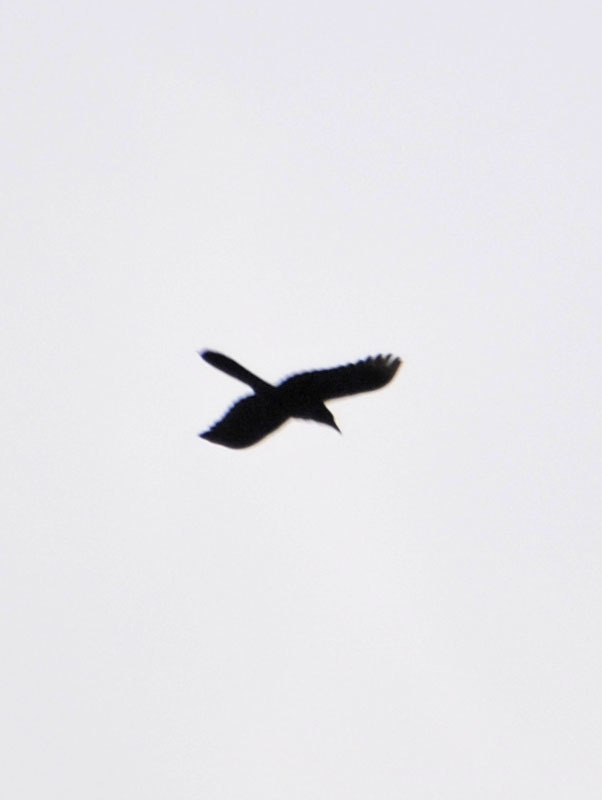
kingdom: Animalia
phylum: Chordata
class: Aves
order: Passeriformes
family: Icteridae
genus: Quiscalus
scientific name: Quiscalus mexicanus
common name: Great-tailed grackle
